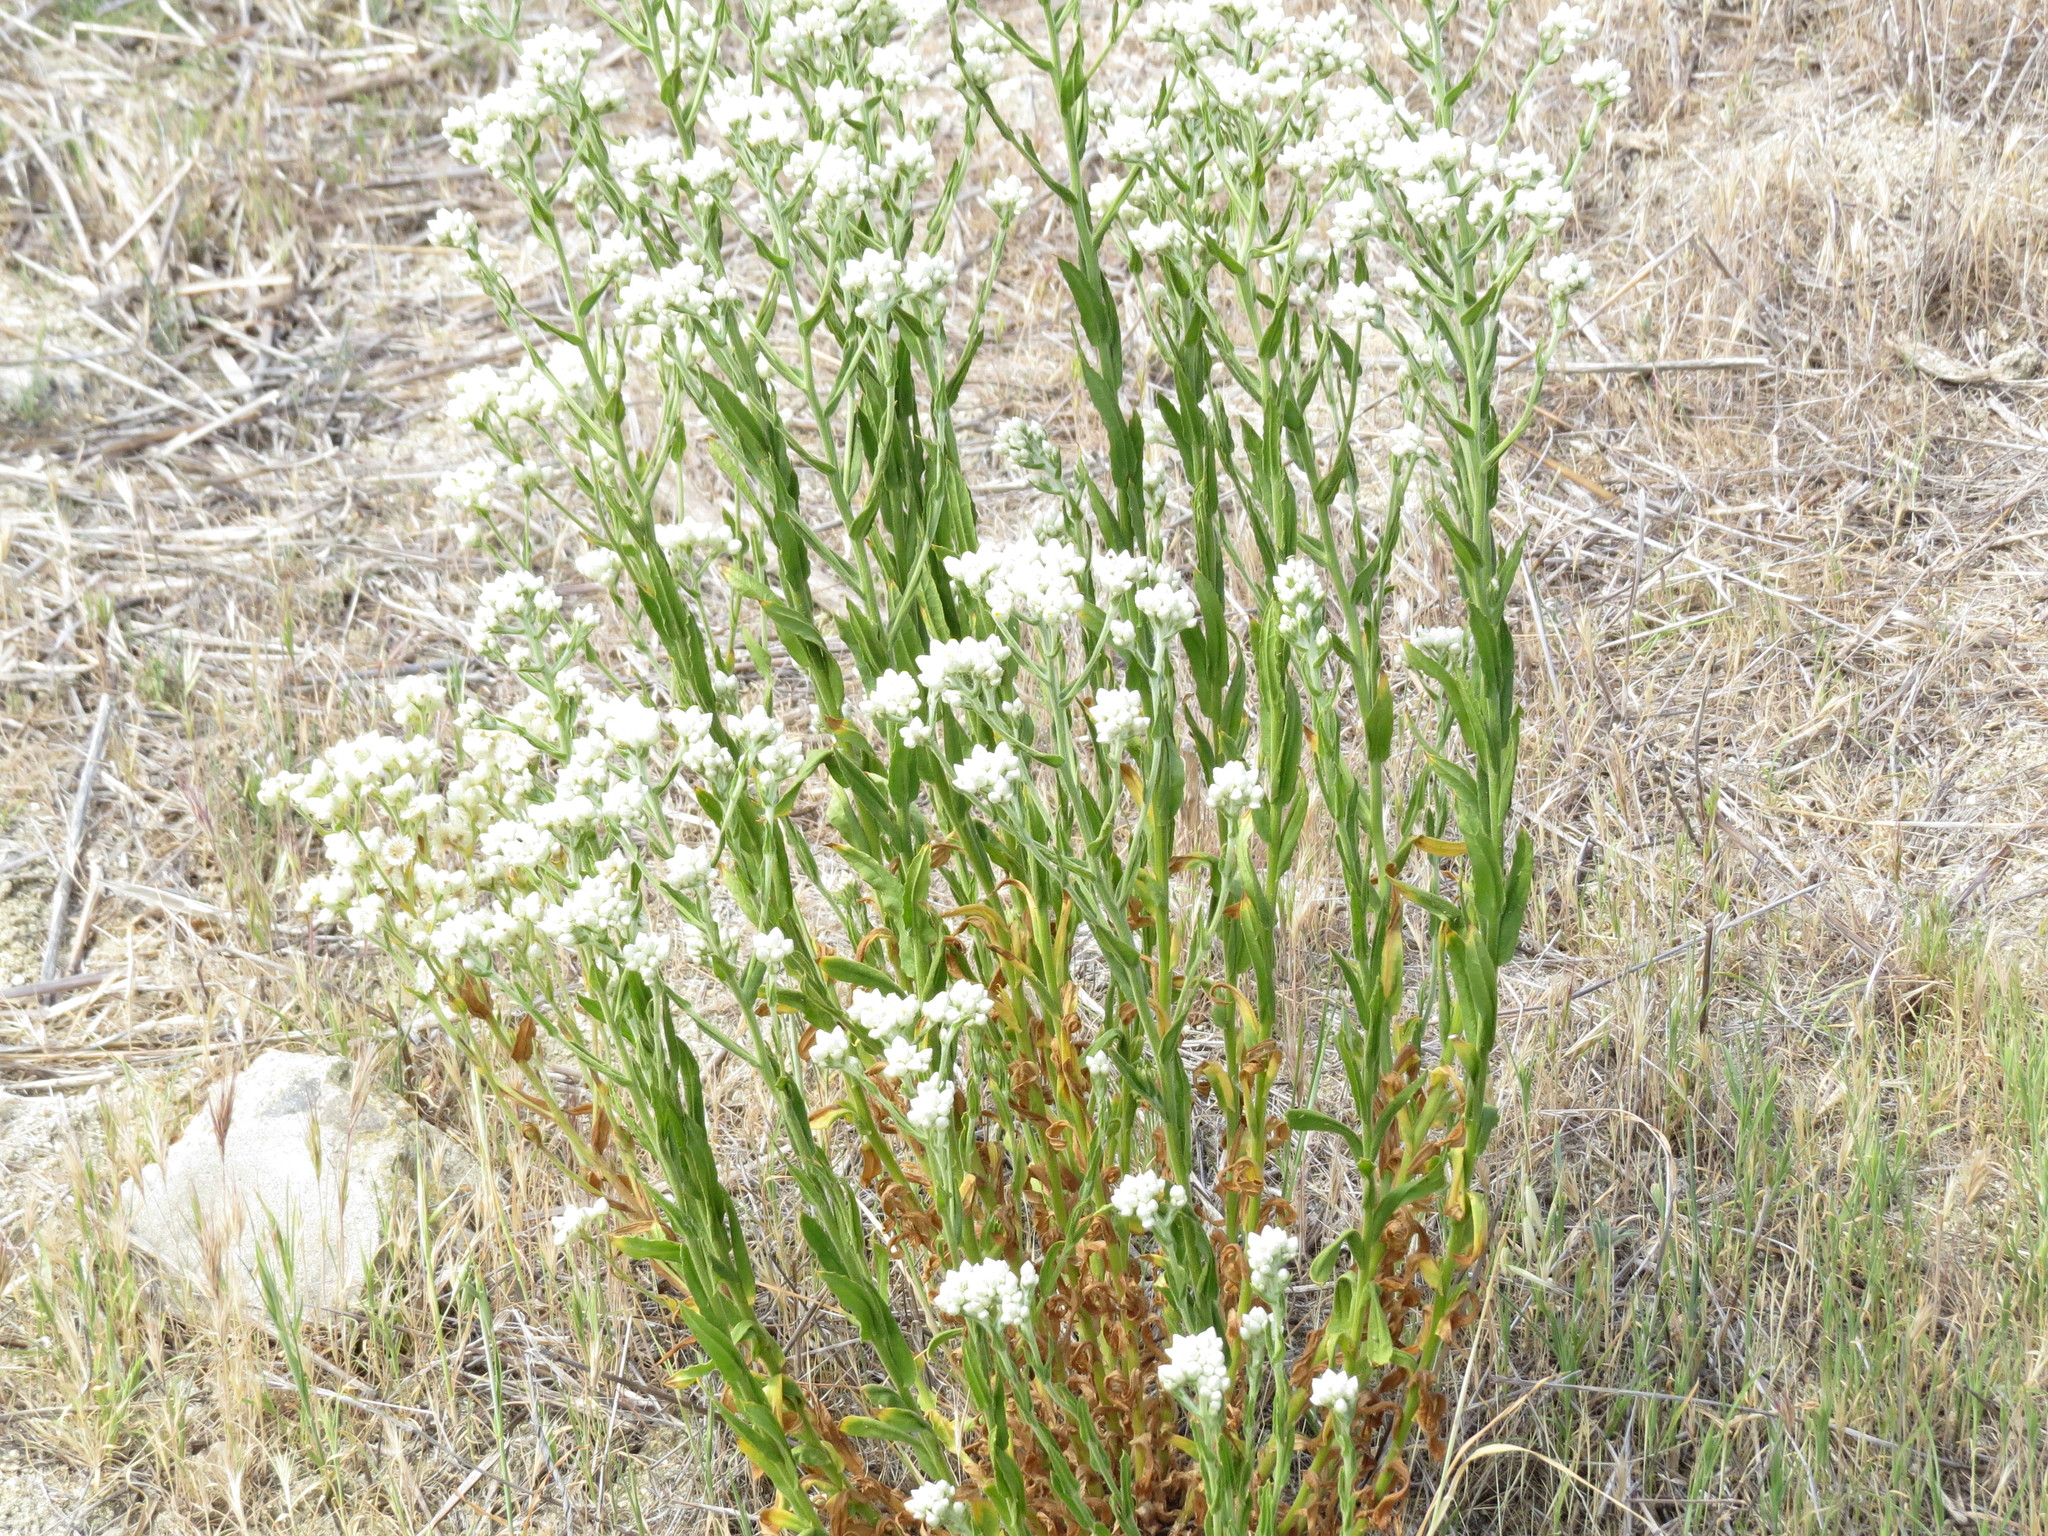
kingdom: Plantae
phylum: Tracheophyta
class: Magnoliopsida
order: Asterales
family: Asteraceae
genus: Pseudognaphalium
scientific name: Pseudognaphalium californicum
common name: California rabbit-tobacco
